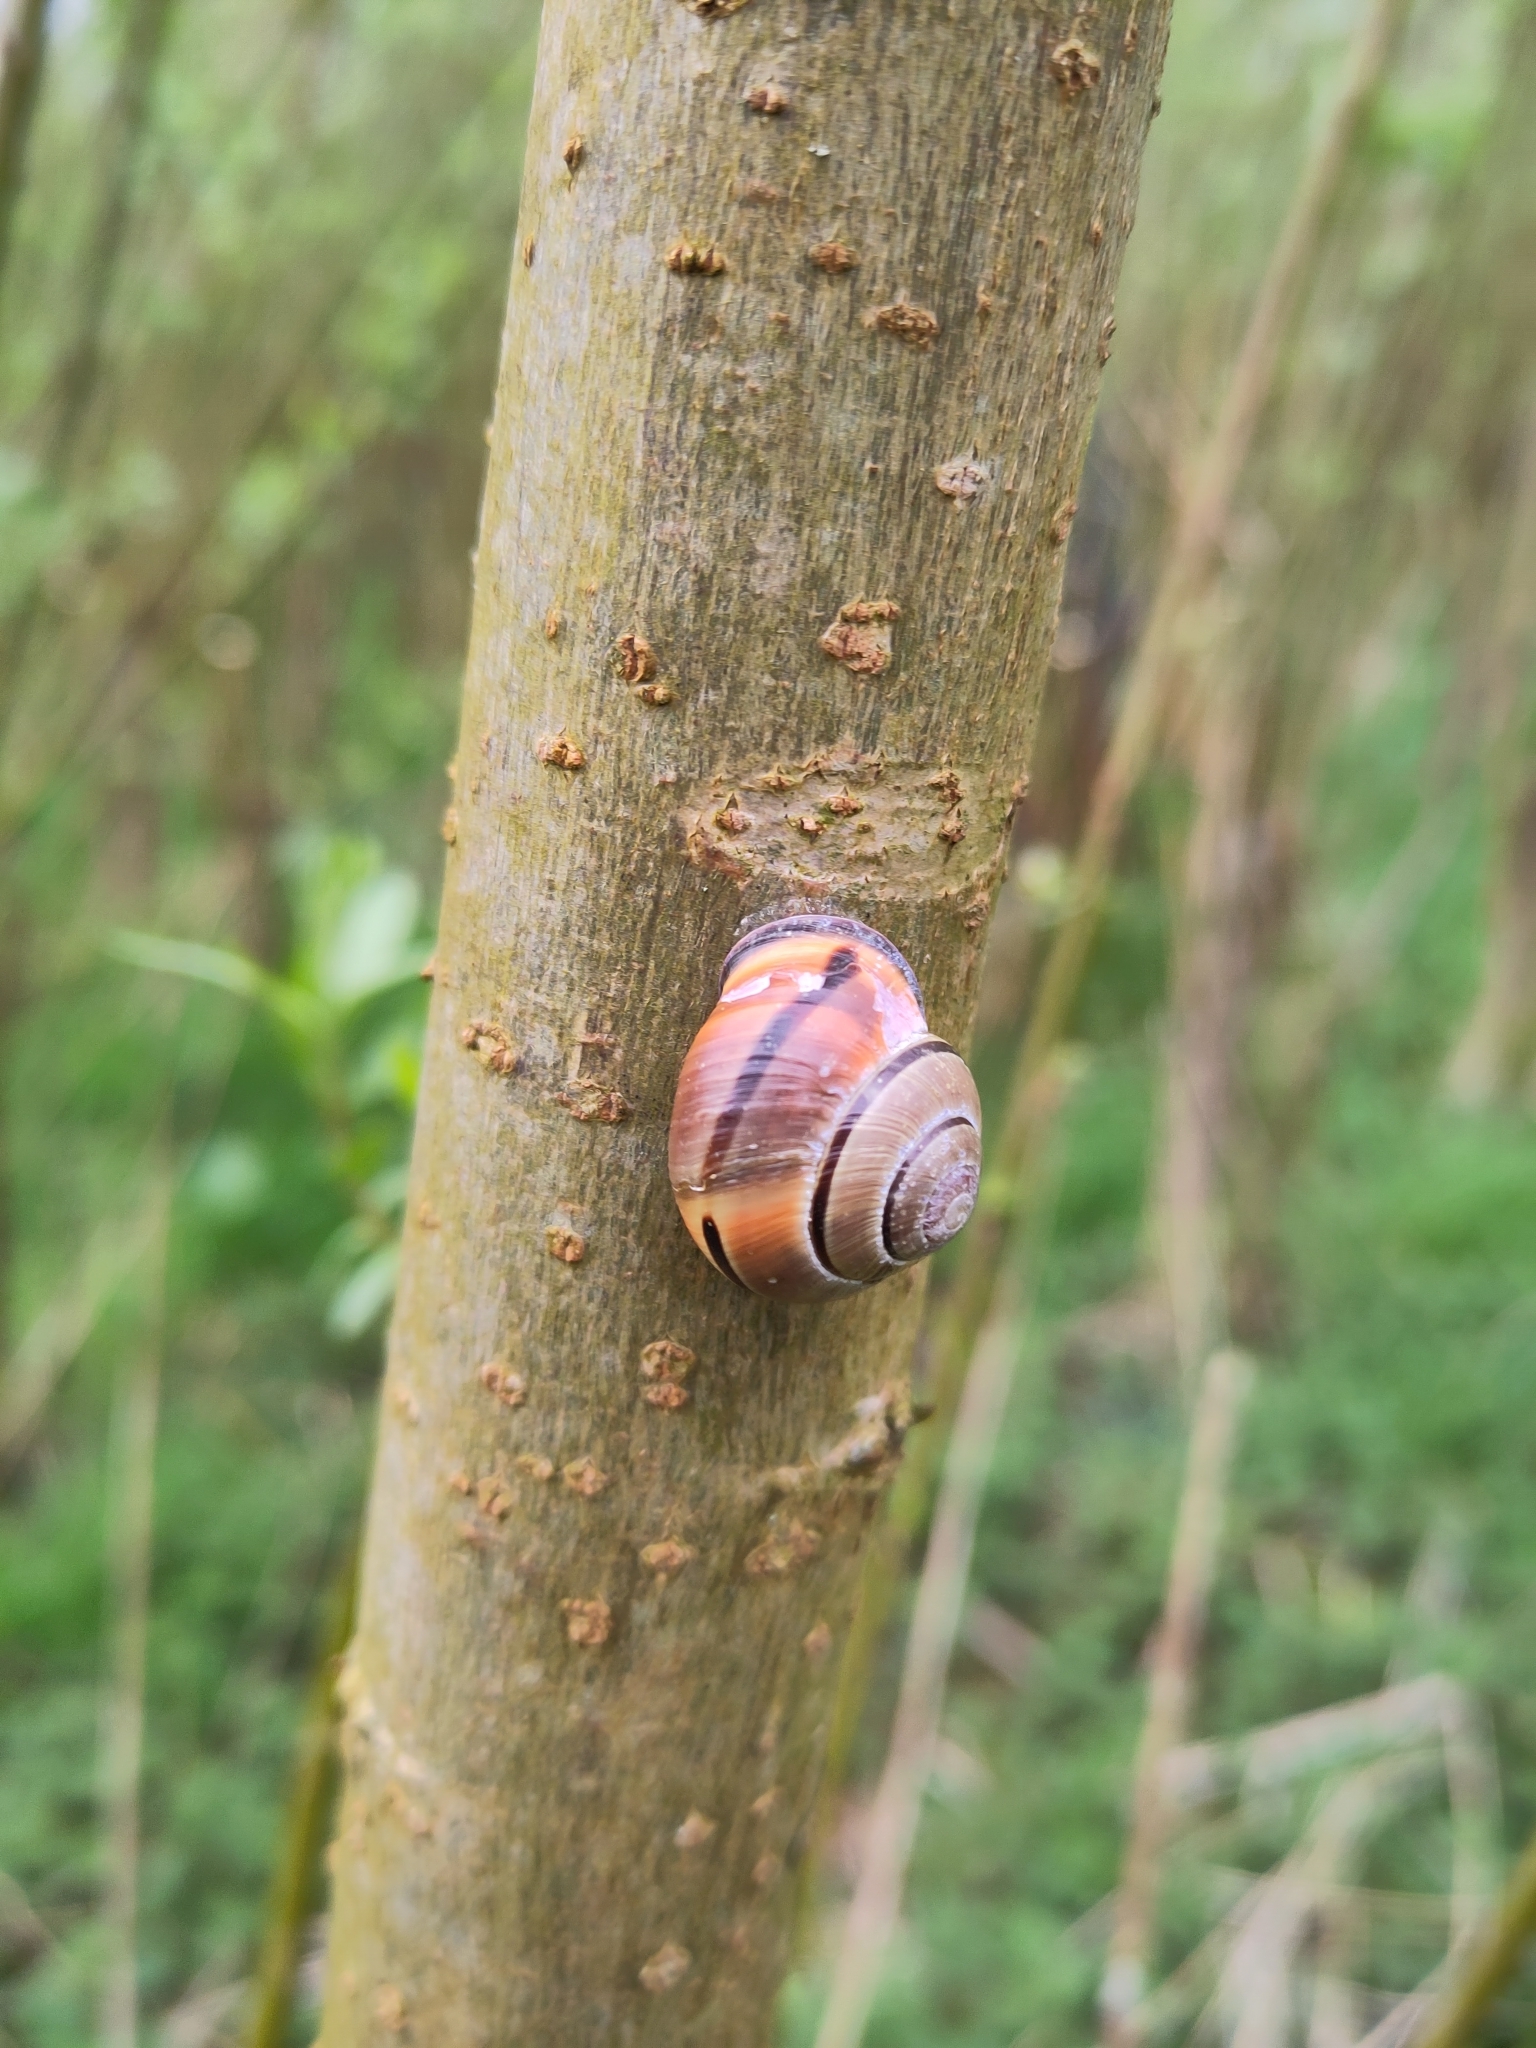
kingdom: Animalia
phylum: Mollusca
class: Gastropoda
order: Stylommatophora
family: Helicidae
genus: Cepaea
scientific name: Cepaea nemoralis
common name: Grovesnail
